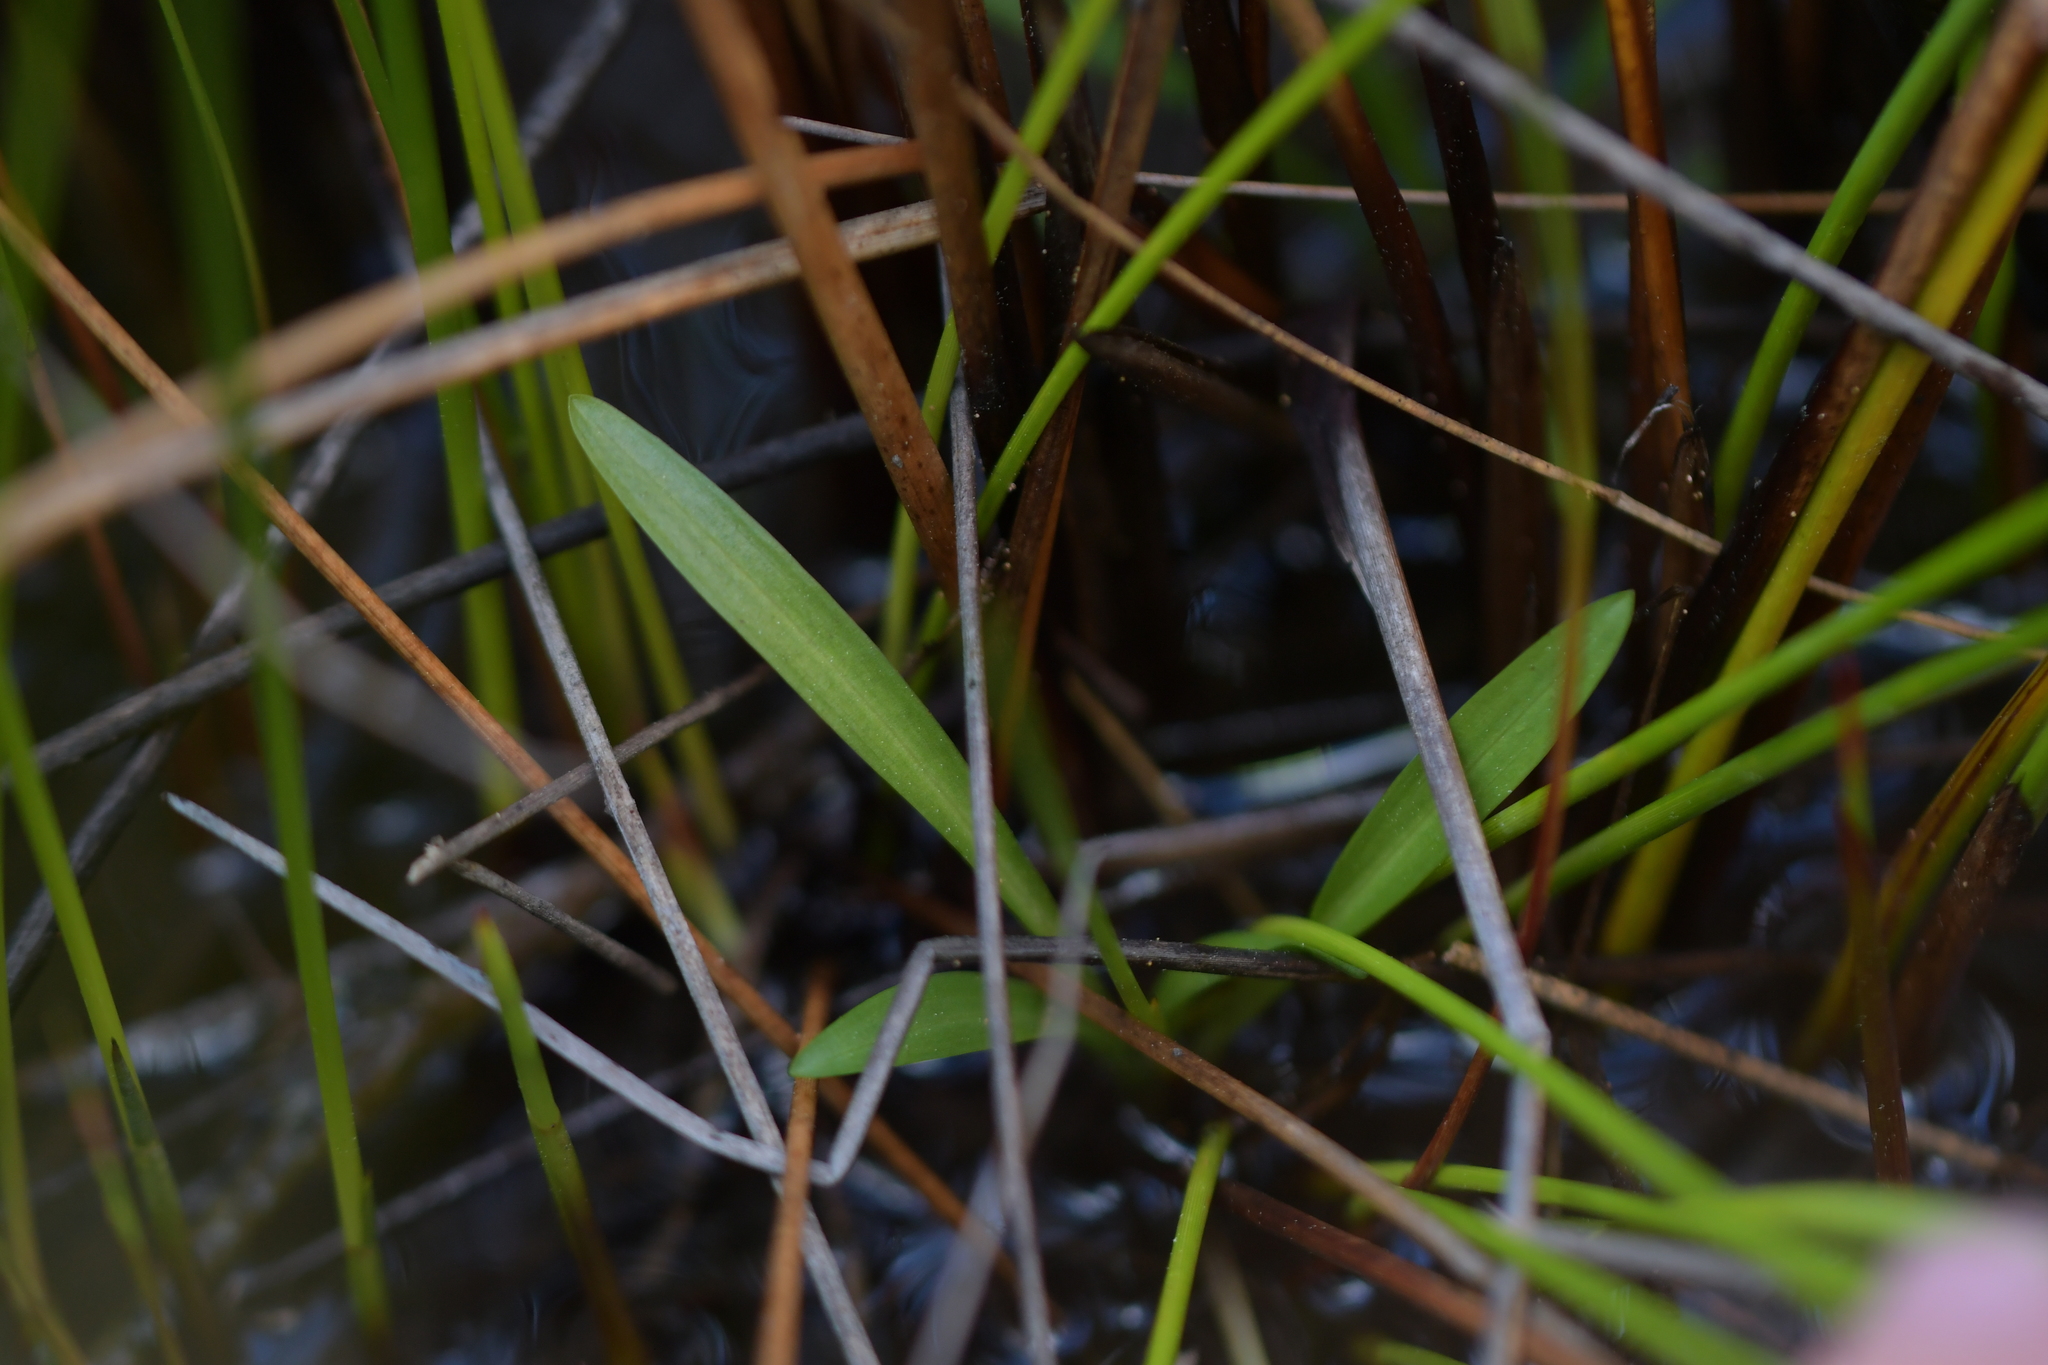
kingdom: Plantae
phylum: Tracheophyta
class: Liliopsida
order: Asparagales
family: Orchidaceae
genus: Spiranthes
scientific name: Spiranthes australis
